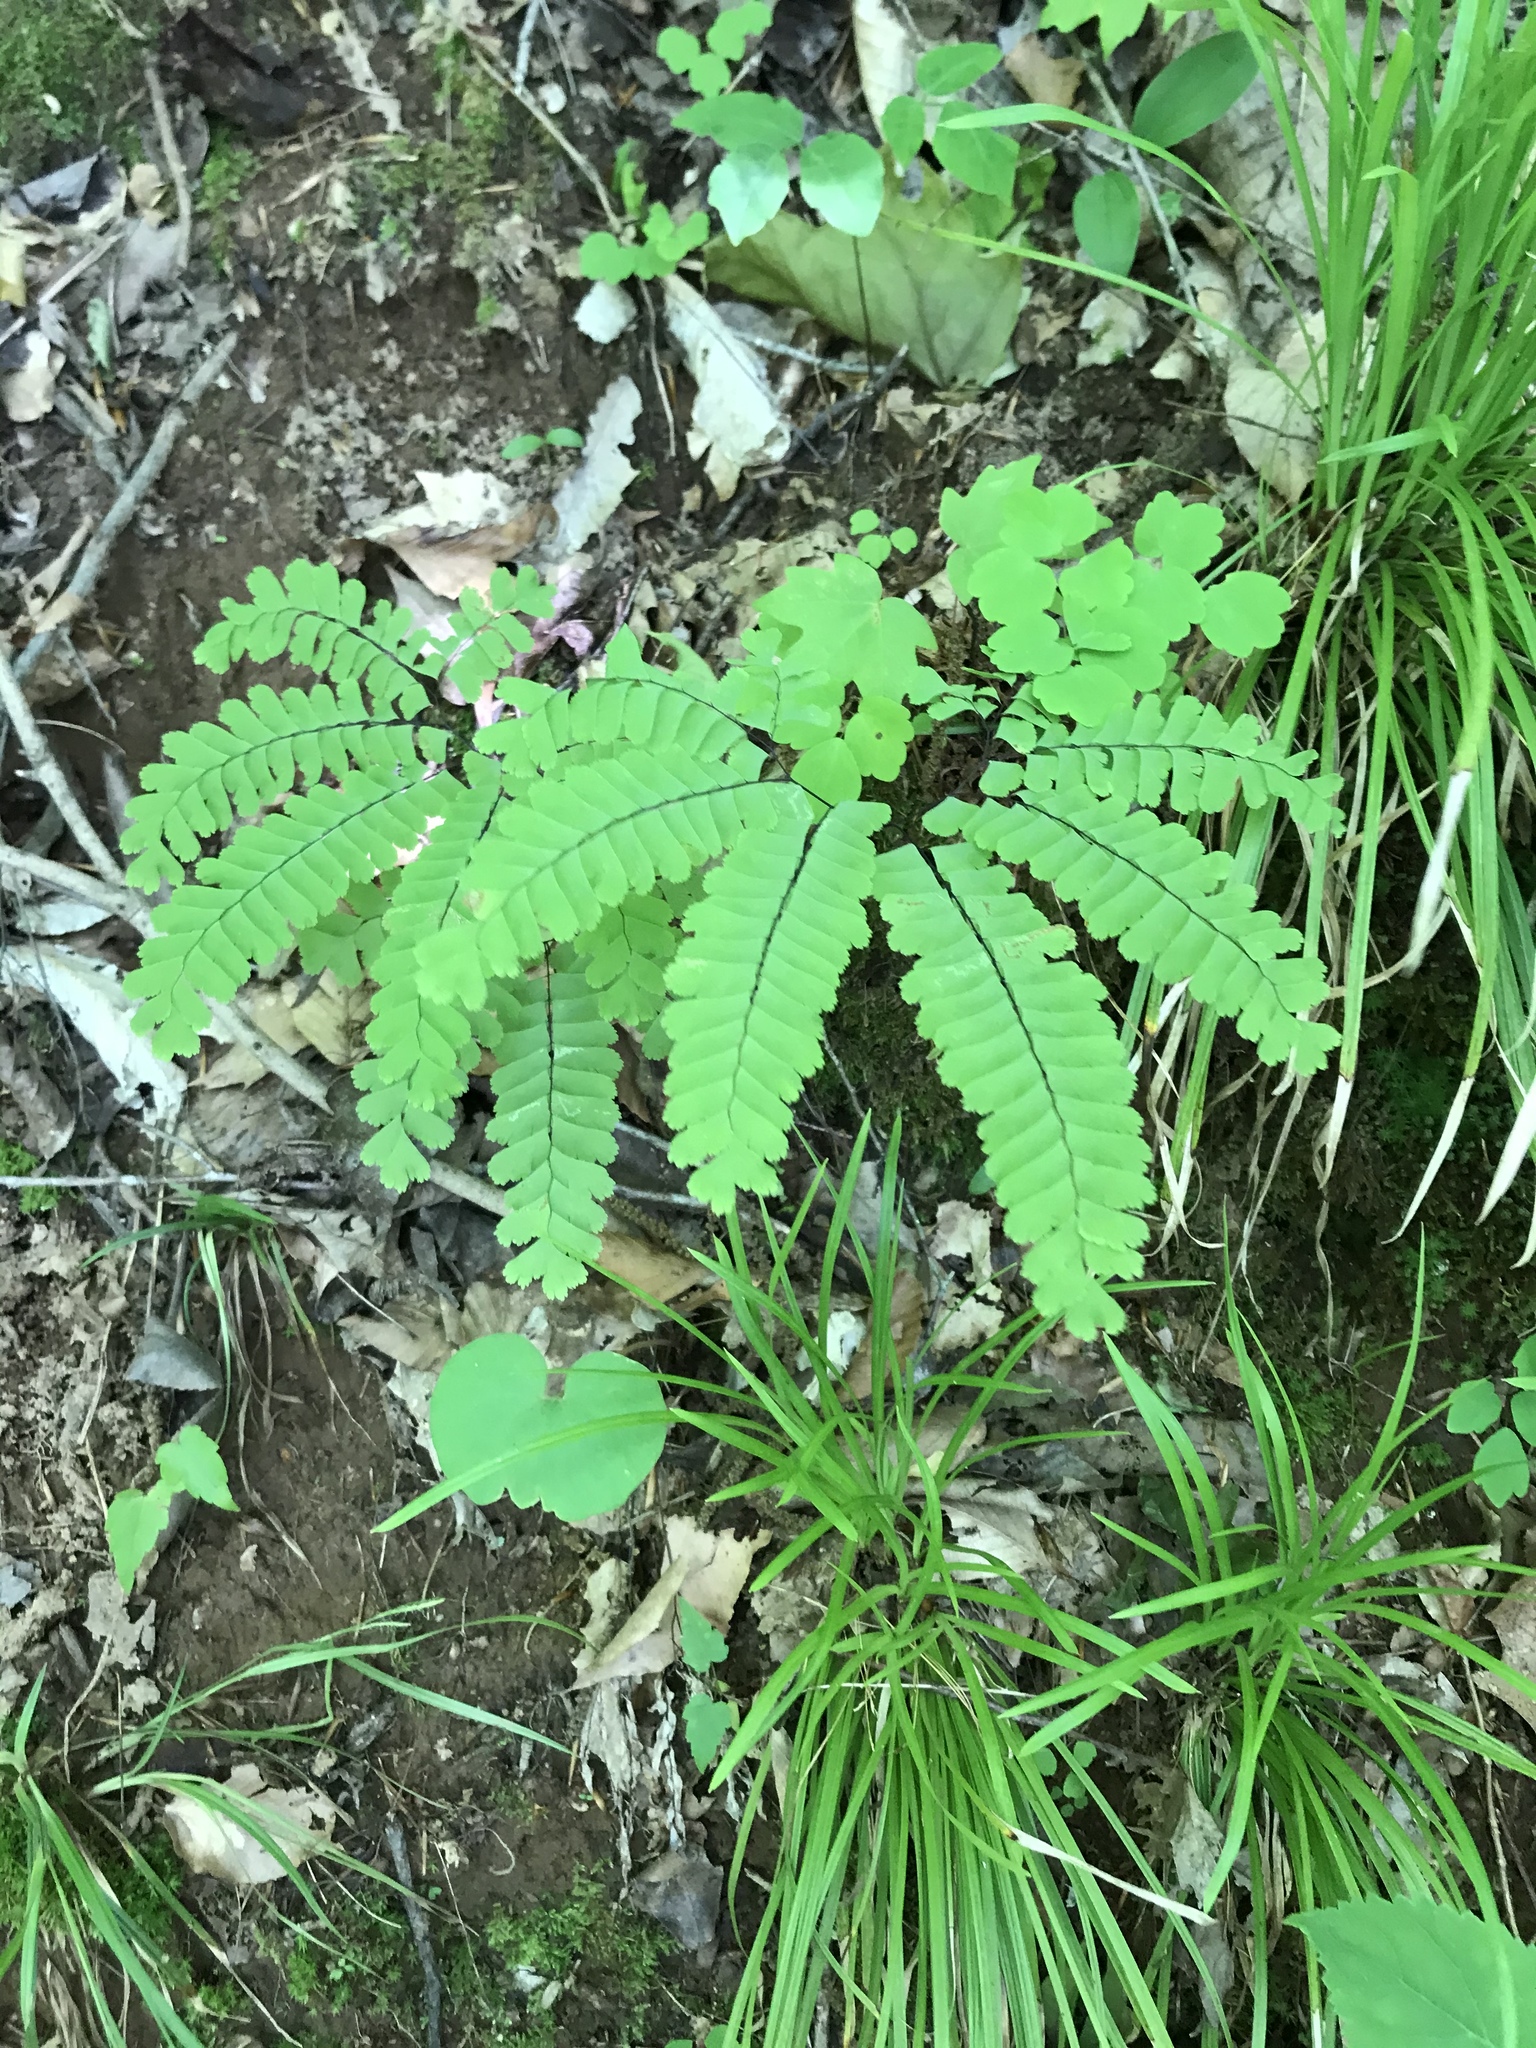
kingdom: Plantae
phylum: Tracheophyta
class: Polypodiopsida
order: Polypodiales
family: Pteridaceae
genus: Adiantum
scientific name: Adiantum pedatum
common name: Five-finger fern
